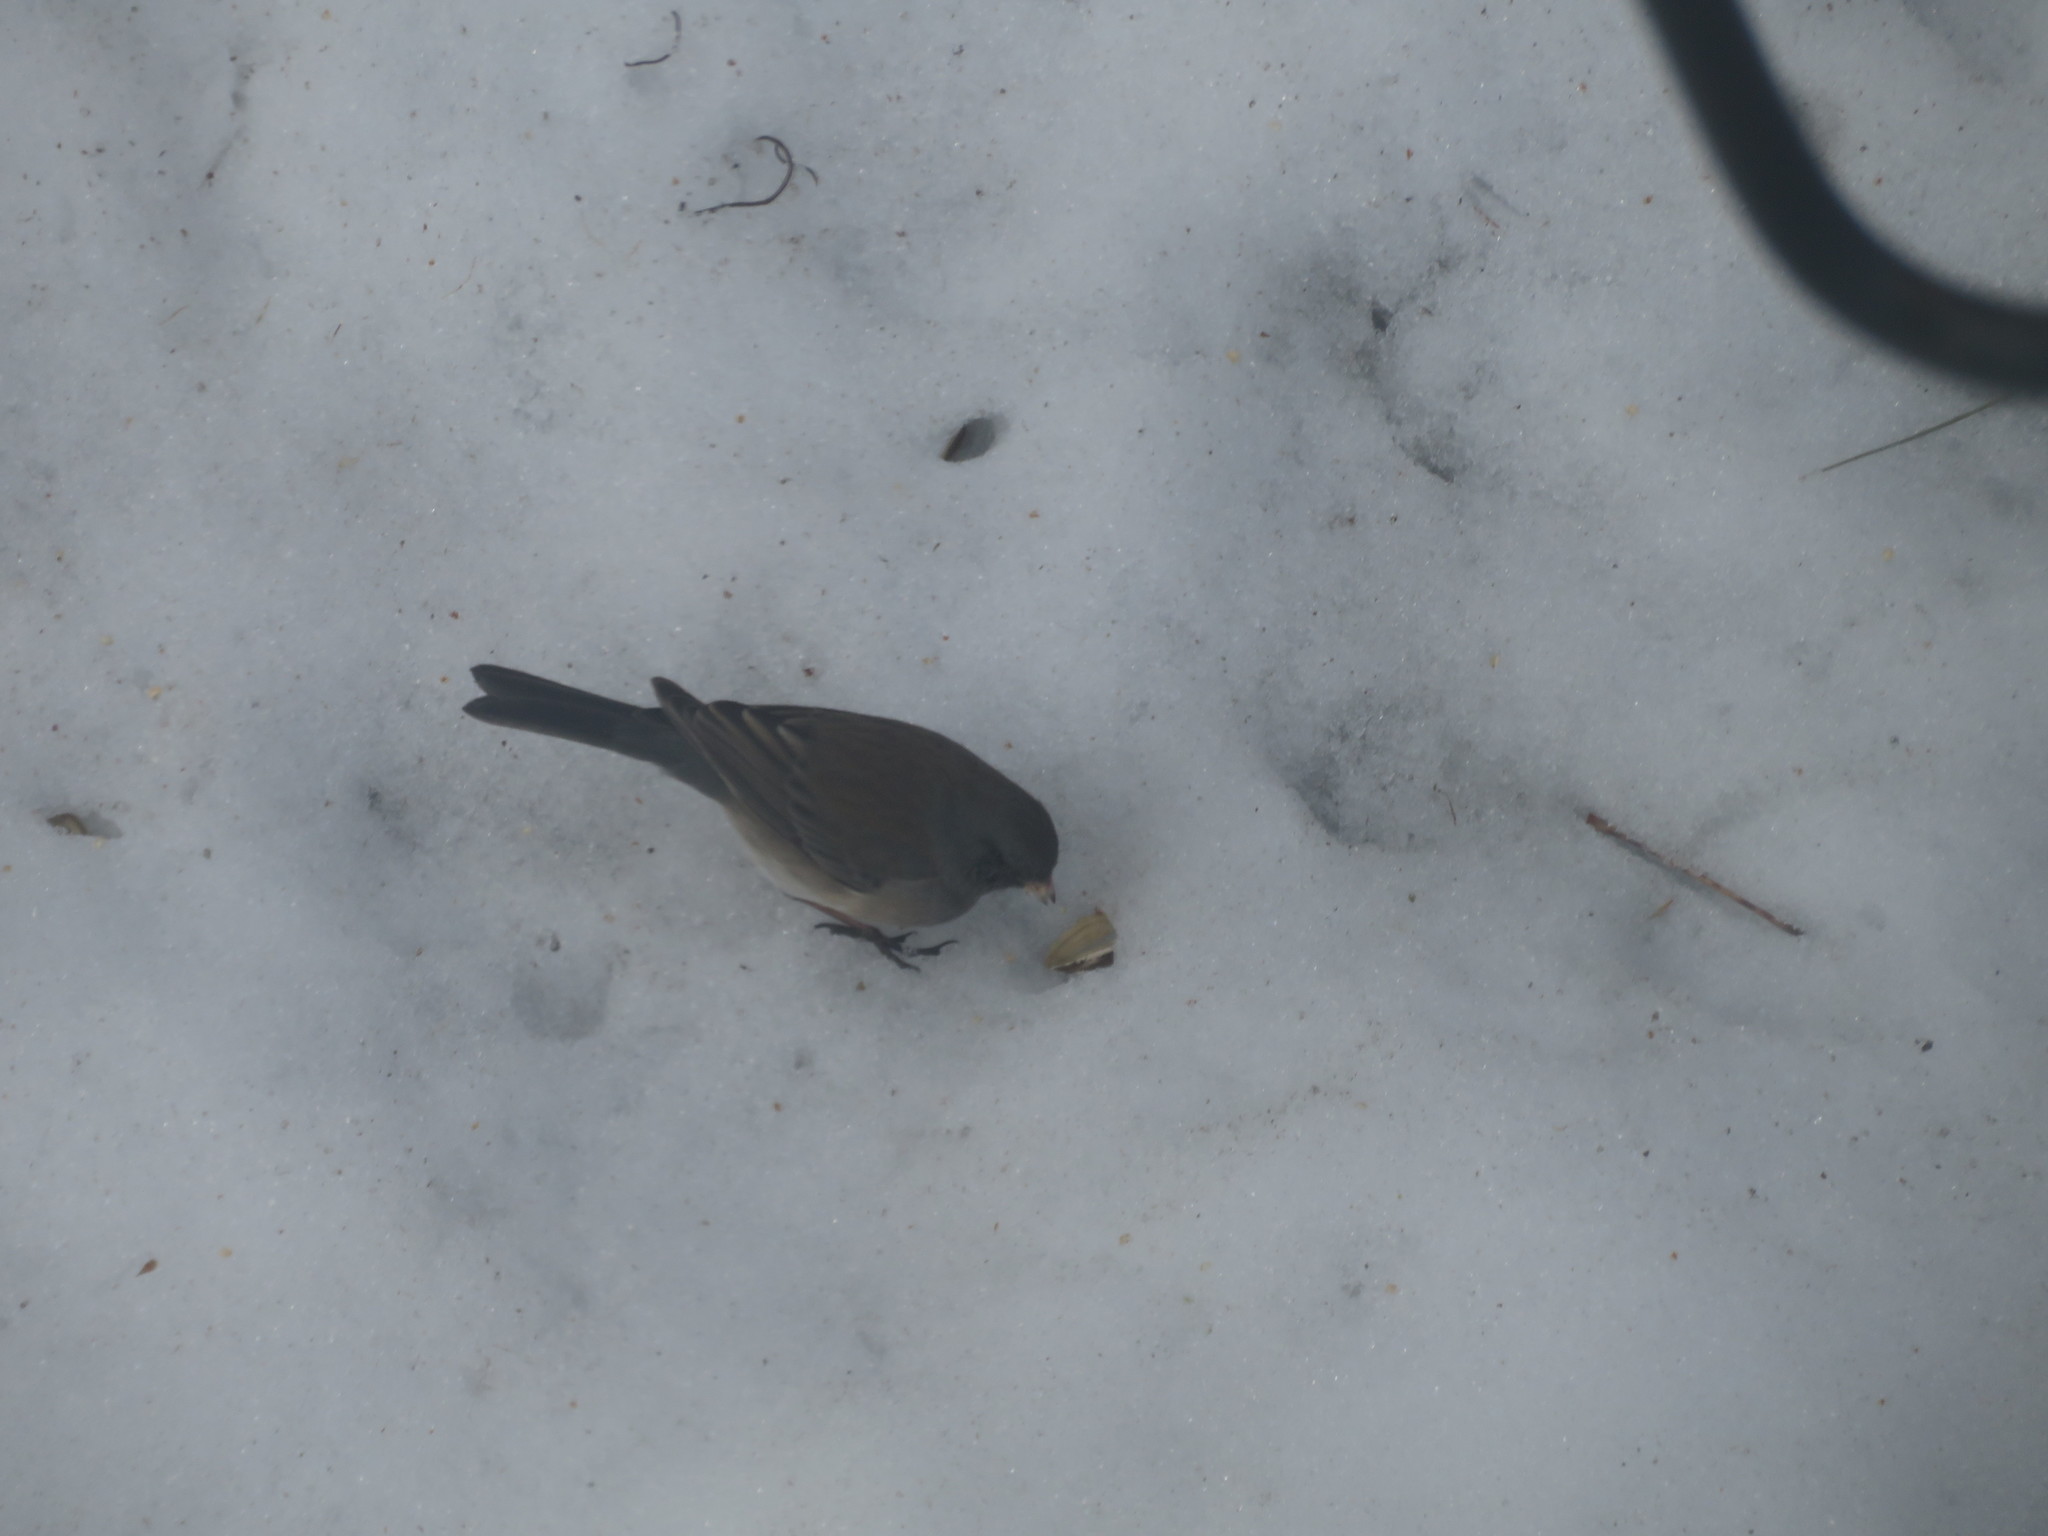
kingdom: Animalia
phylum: Chordata
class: Aves
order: Passeriformes
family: Passerellidae
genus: Junco
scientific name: Junco hyemalis
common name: Dark-eyed junco
